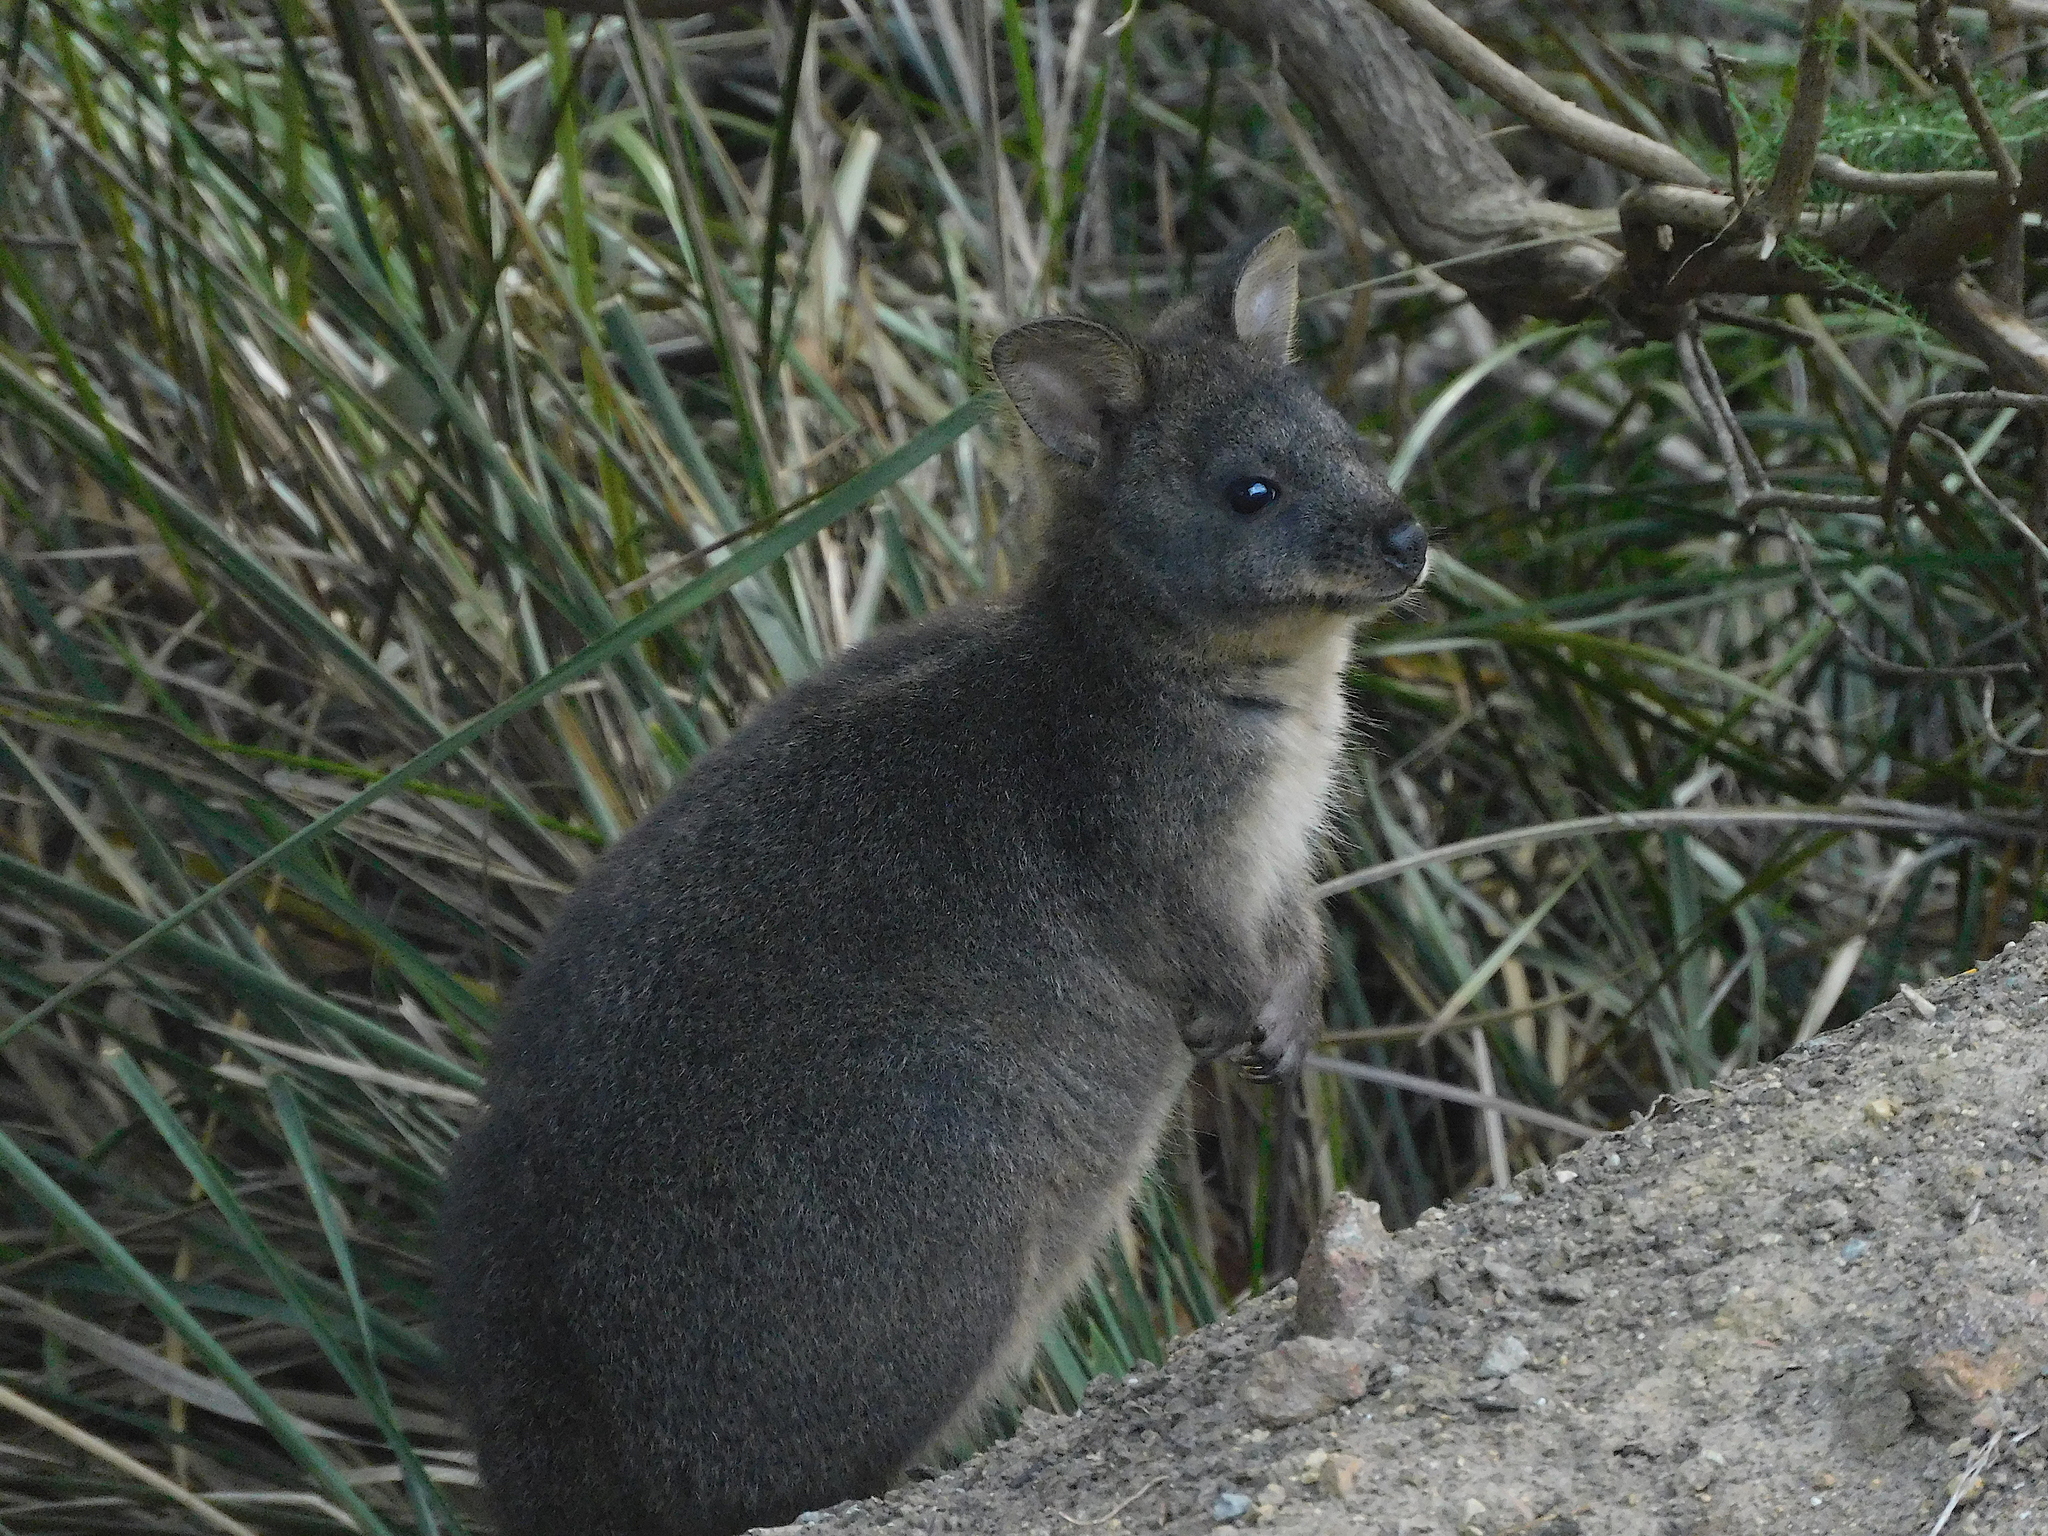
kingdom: Animalia
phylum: Chordata
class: Mammalia
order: Diprotodontia
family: Macropodidae
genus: Thylogale
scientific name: Thylogale billardierii
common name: Tasmanian pademelon
